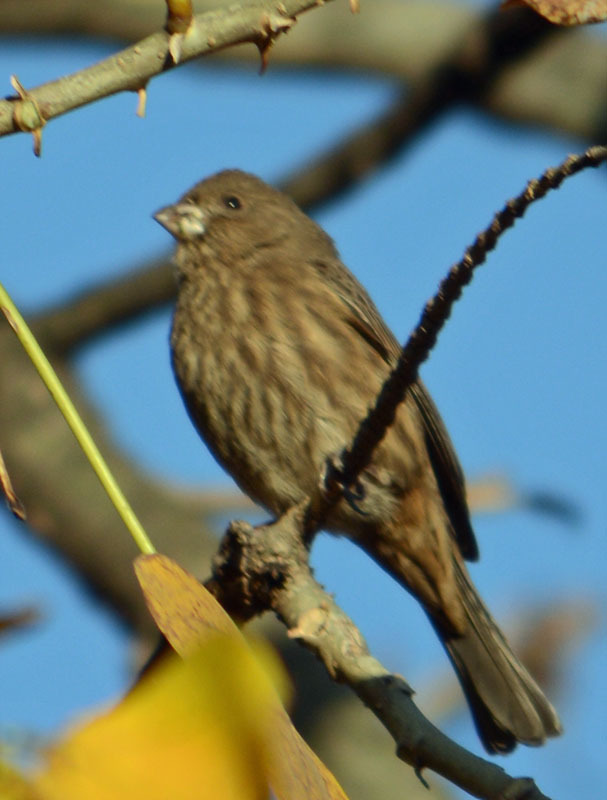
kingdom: Animalia
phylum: Chordata
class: Aves
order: Passeriformes
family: Fringillidae
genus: Haemorhous
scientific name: Haemorhous mexicanus
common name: House finch
